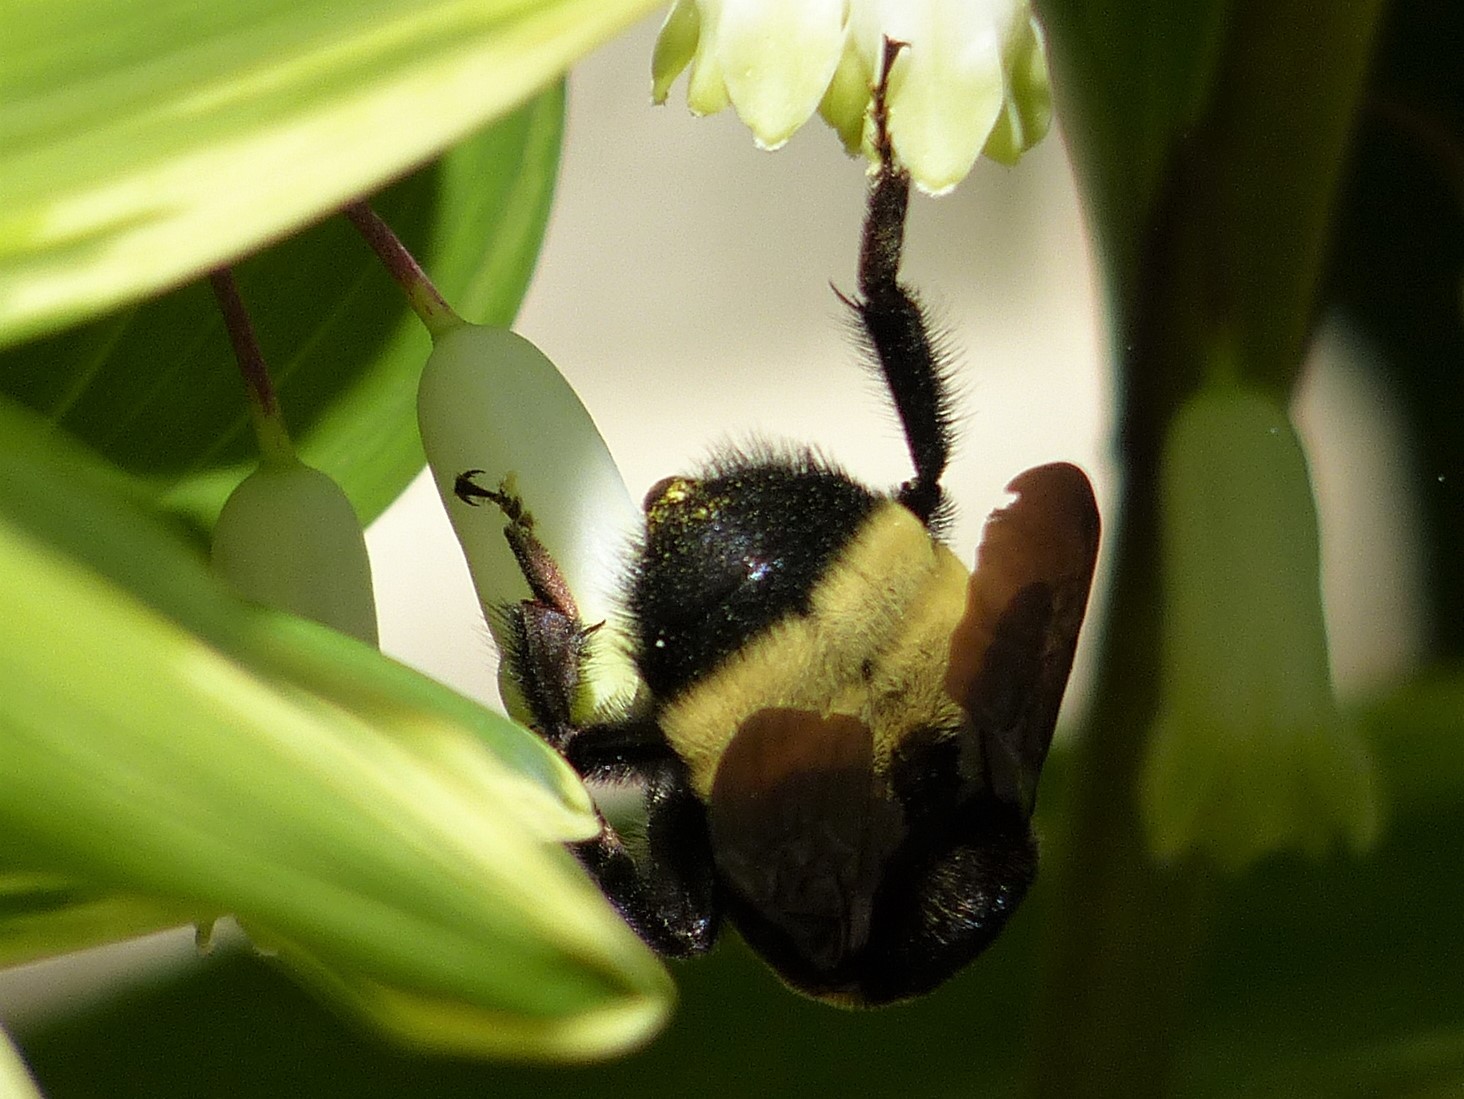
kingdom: Animalia
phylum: Arthropoda
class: Insecta
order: Hymenoptera
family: Apidae
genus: Bombus
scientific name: Bombus auricomus
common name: Black and gold bumble bee
